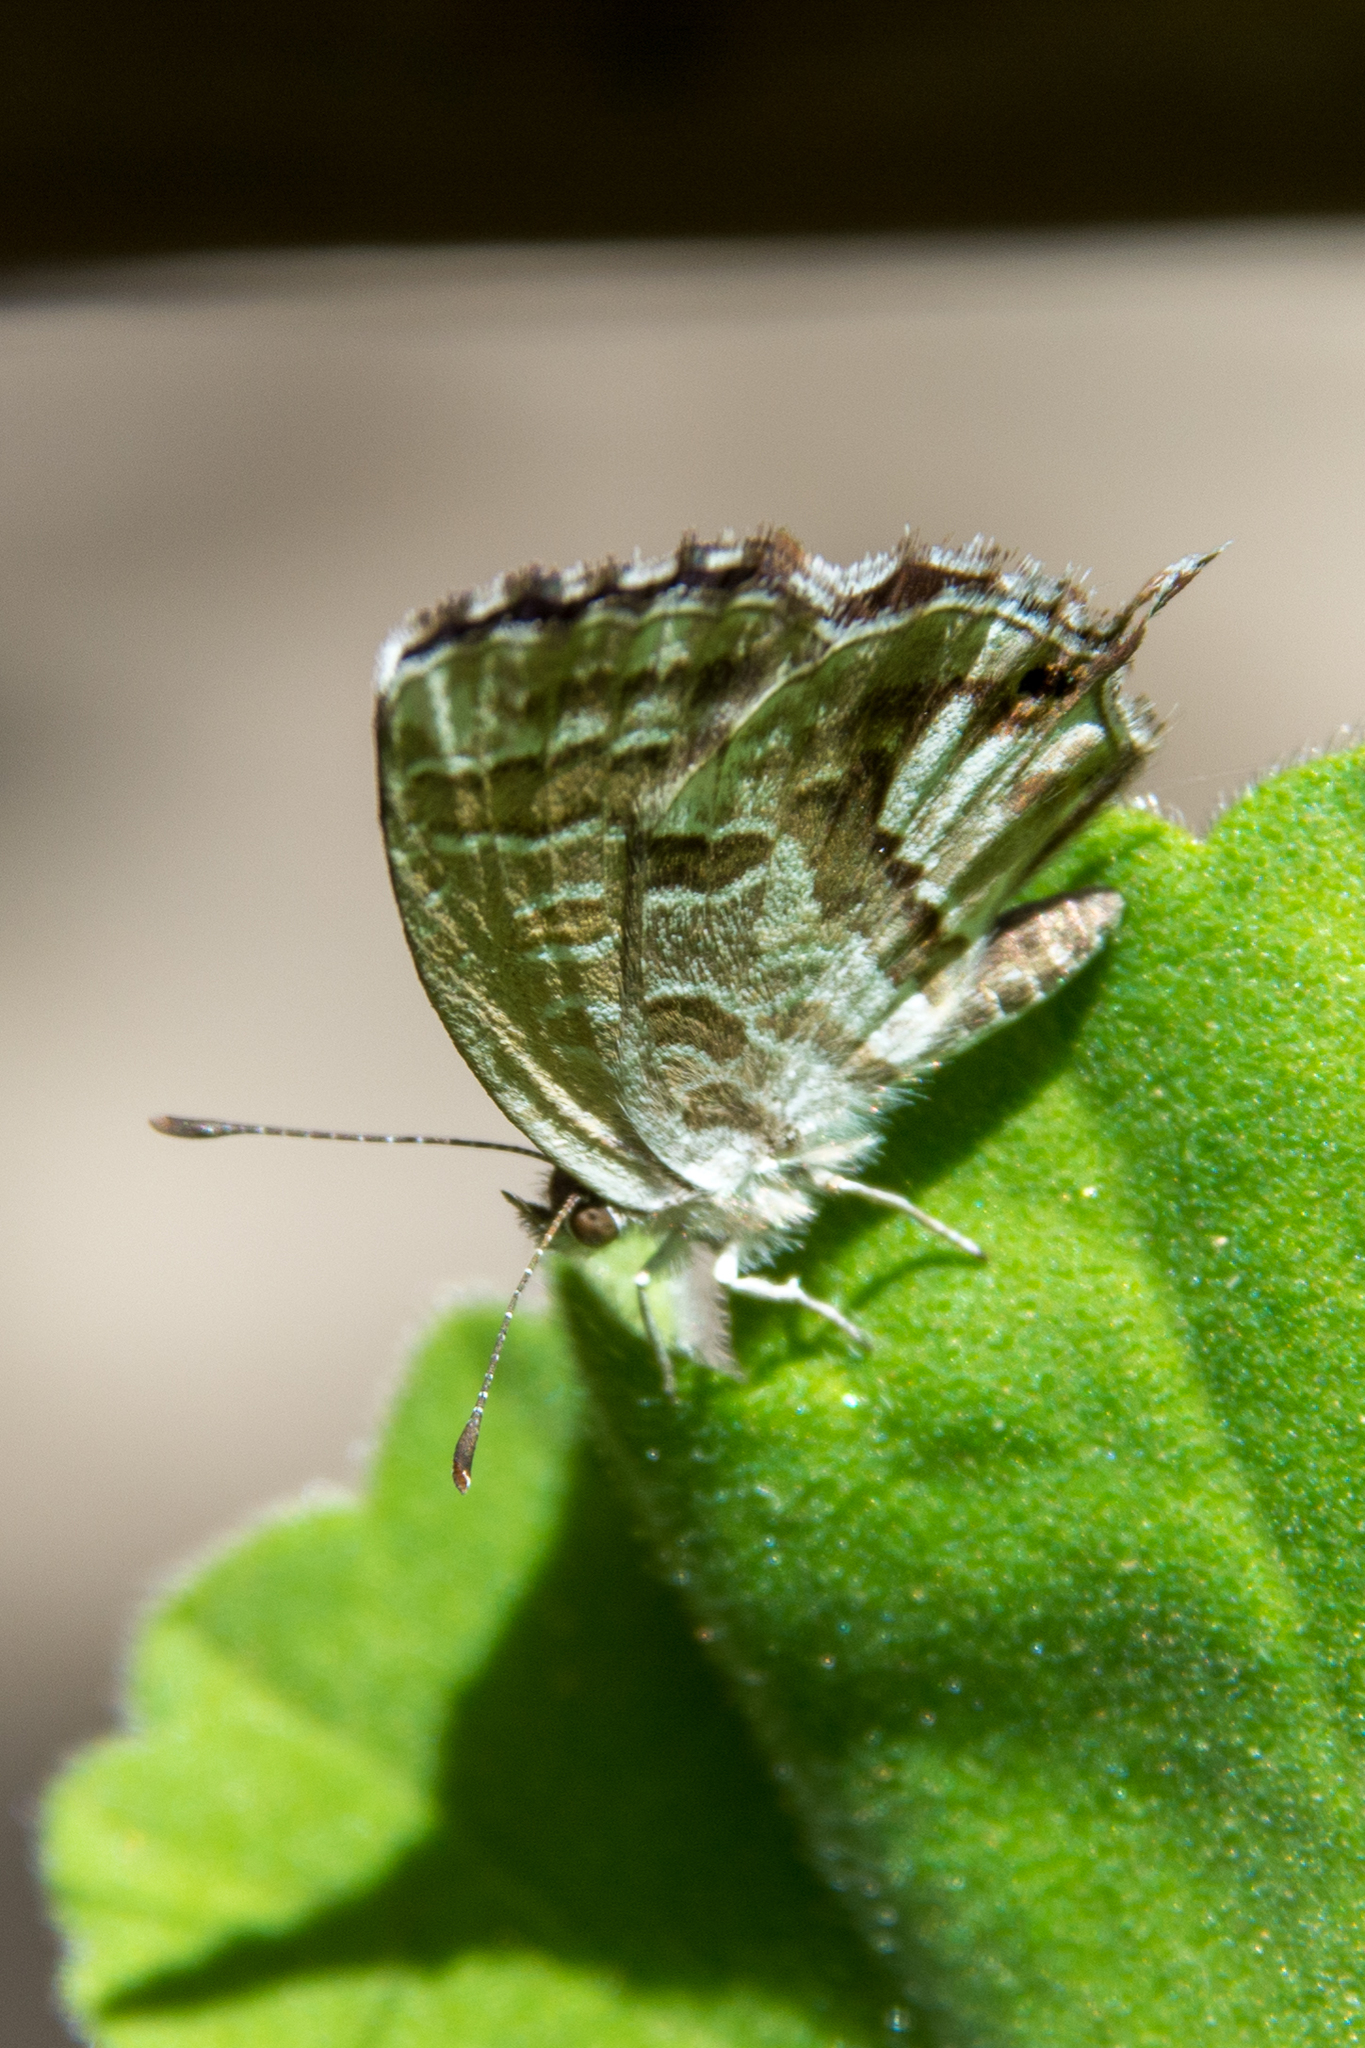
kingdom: Animalia
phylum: Arthropoda
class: Insecta
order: Lepidoptera
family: Lycaenidae
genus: Cacyreus
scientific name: Cacyreus marshalli
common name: Geranium bronze
